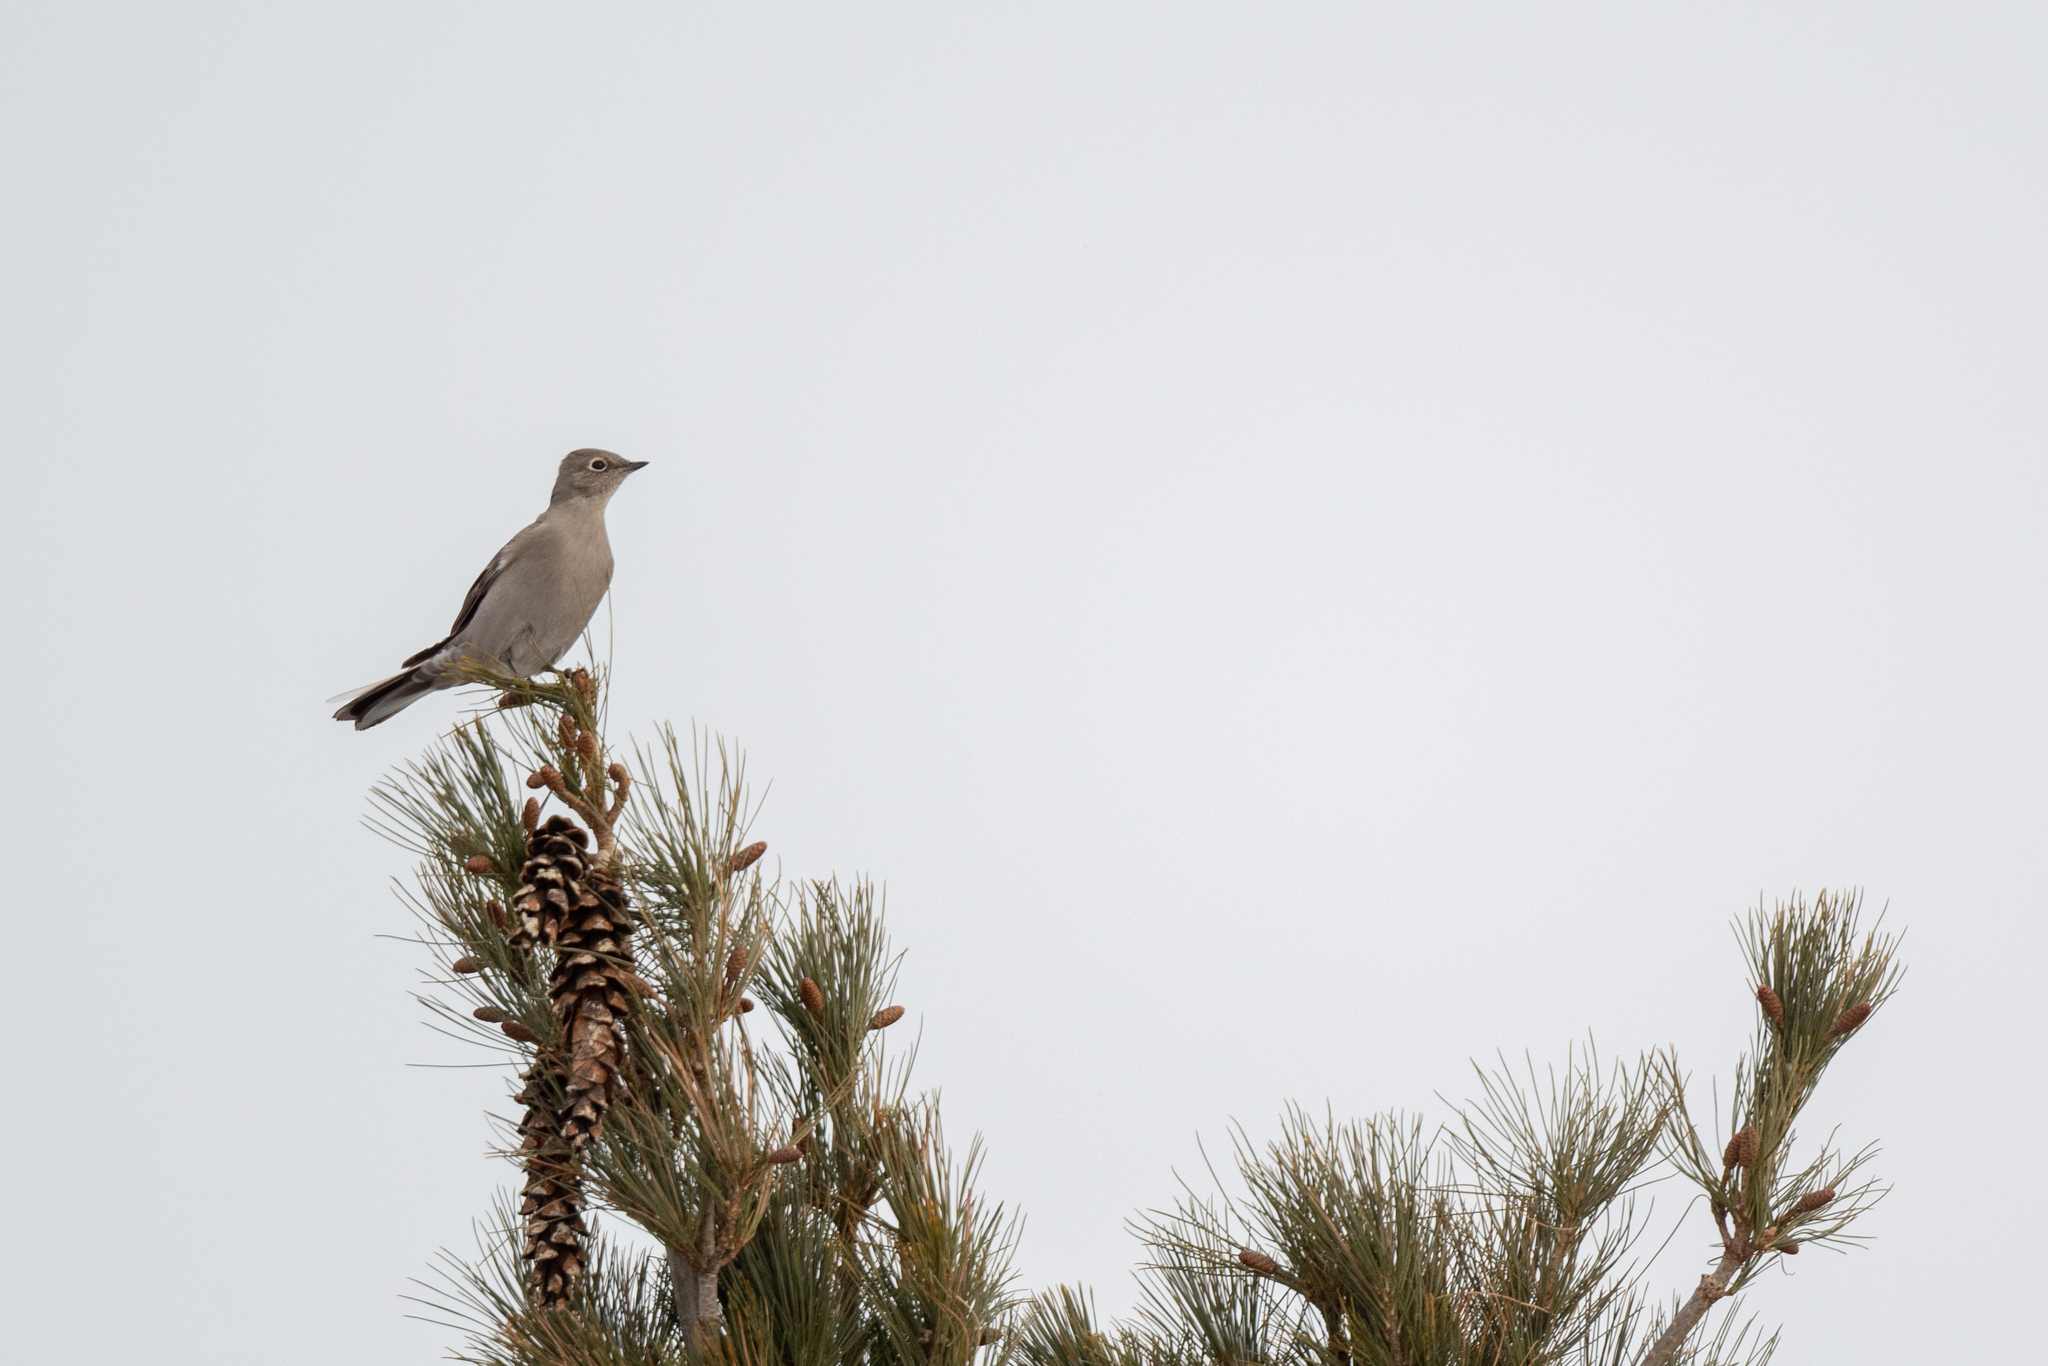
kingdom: Animalia
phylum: Chordata
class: Aves
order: Passeriformes
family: Turdidae
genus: Myadestes
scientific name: Myadestes townsendi
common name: Townsend's solitaire
